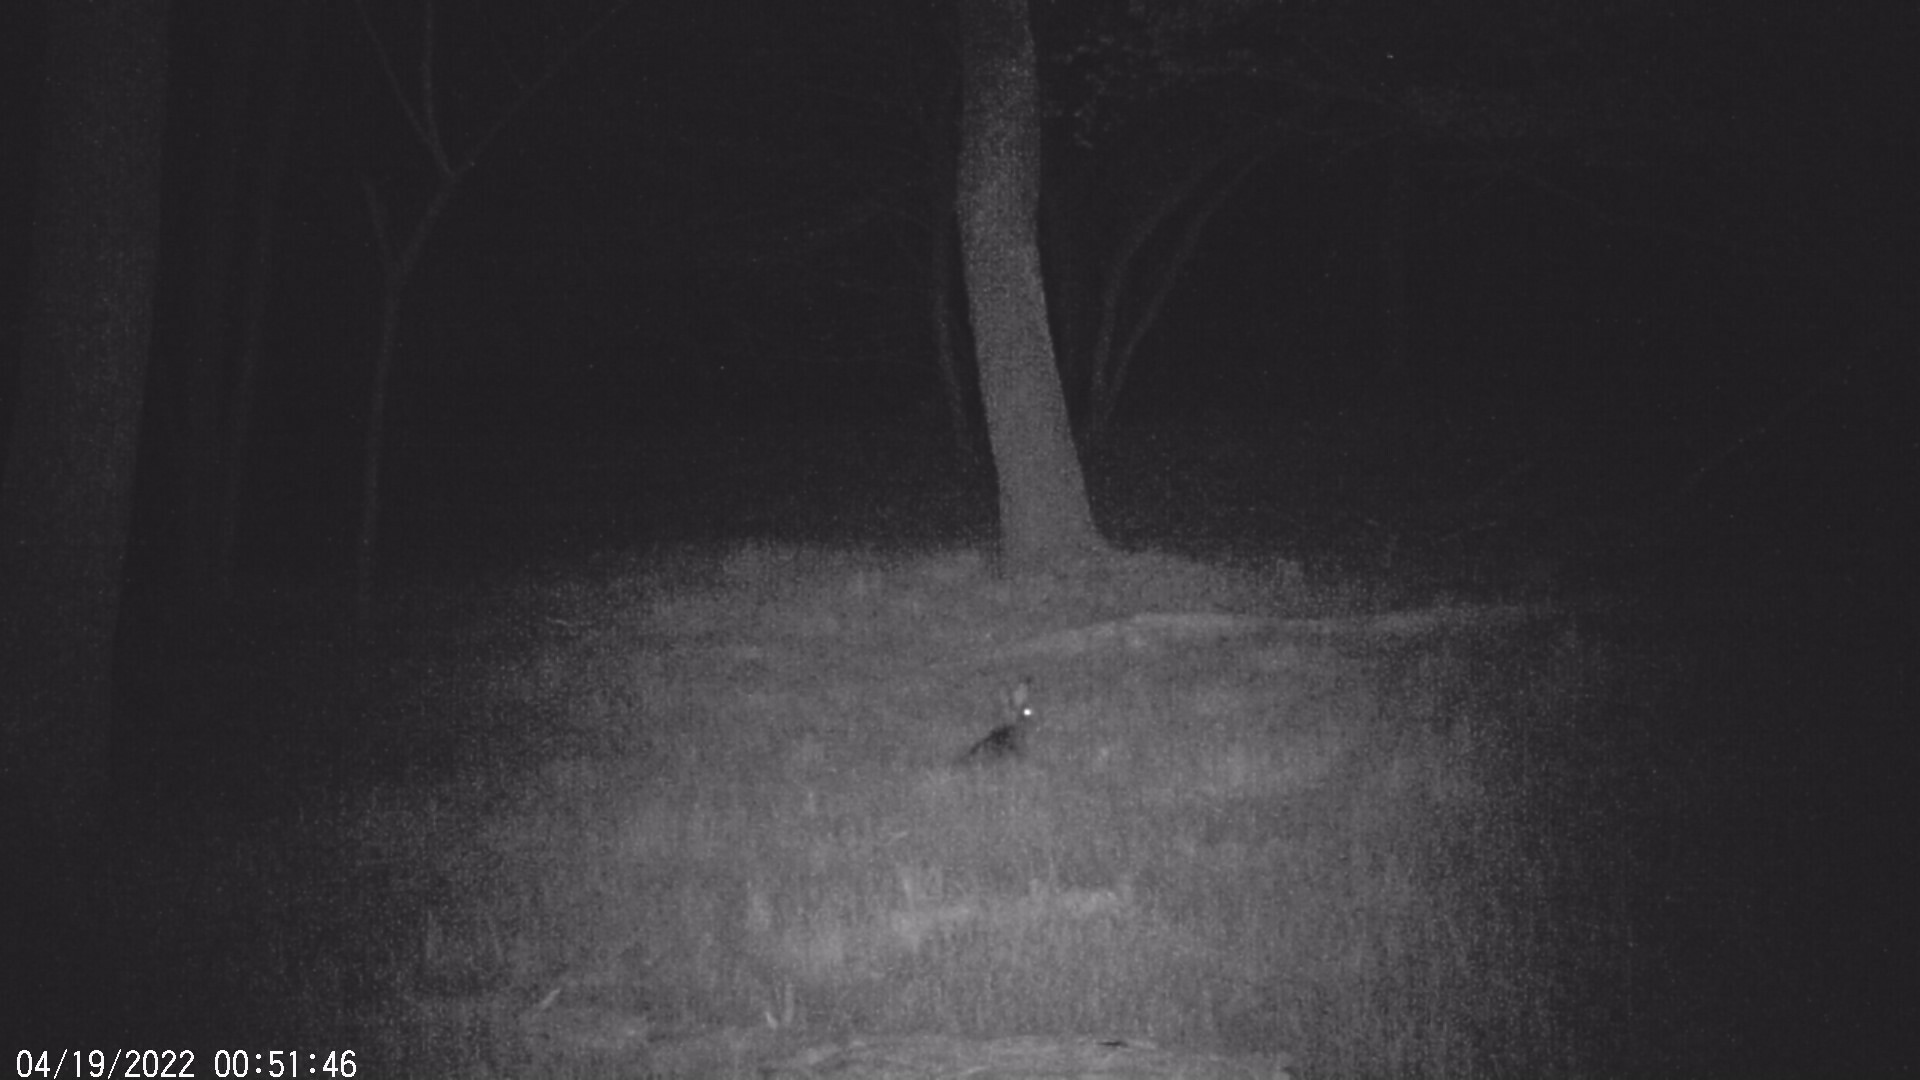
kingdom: Animalia
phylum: Chordata
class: Mammalia
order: Lagomorpha
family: Leporidae
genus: Lepus
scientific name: Lepus europaeus
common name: European hare
